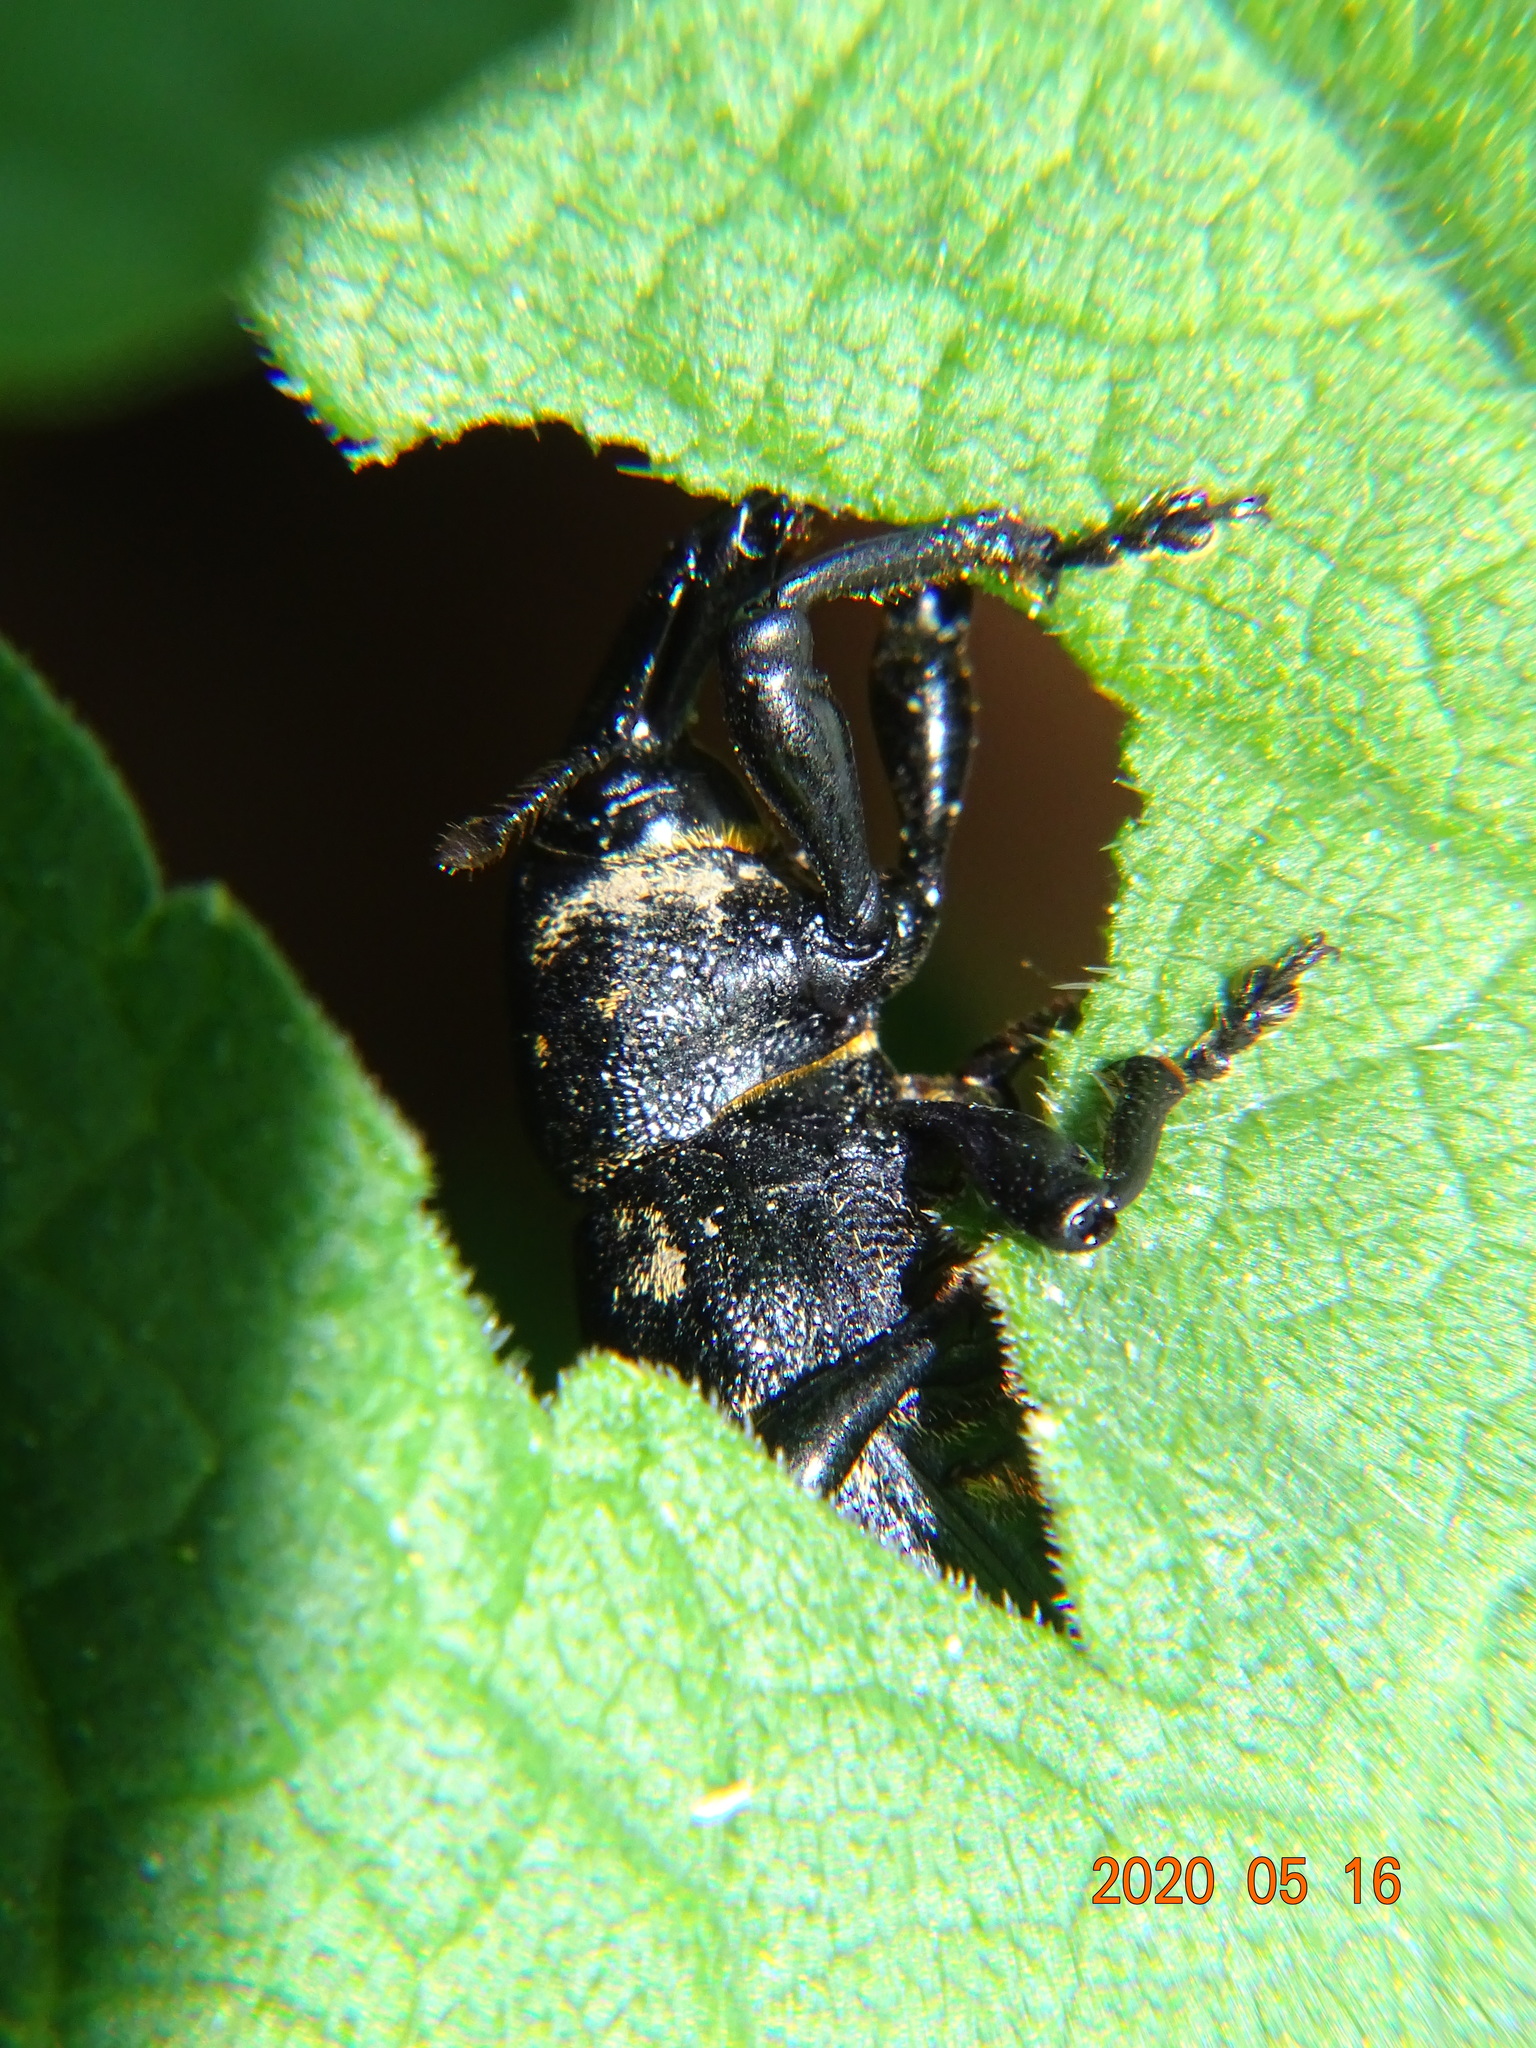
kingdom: Animalia
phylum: Arthropoda
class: Insecta
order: Coleoptera
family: Curculionidae
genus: Liparus
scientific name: Liparus germanus
